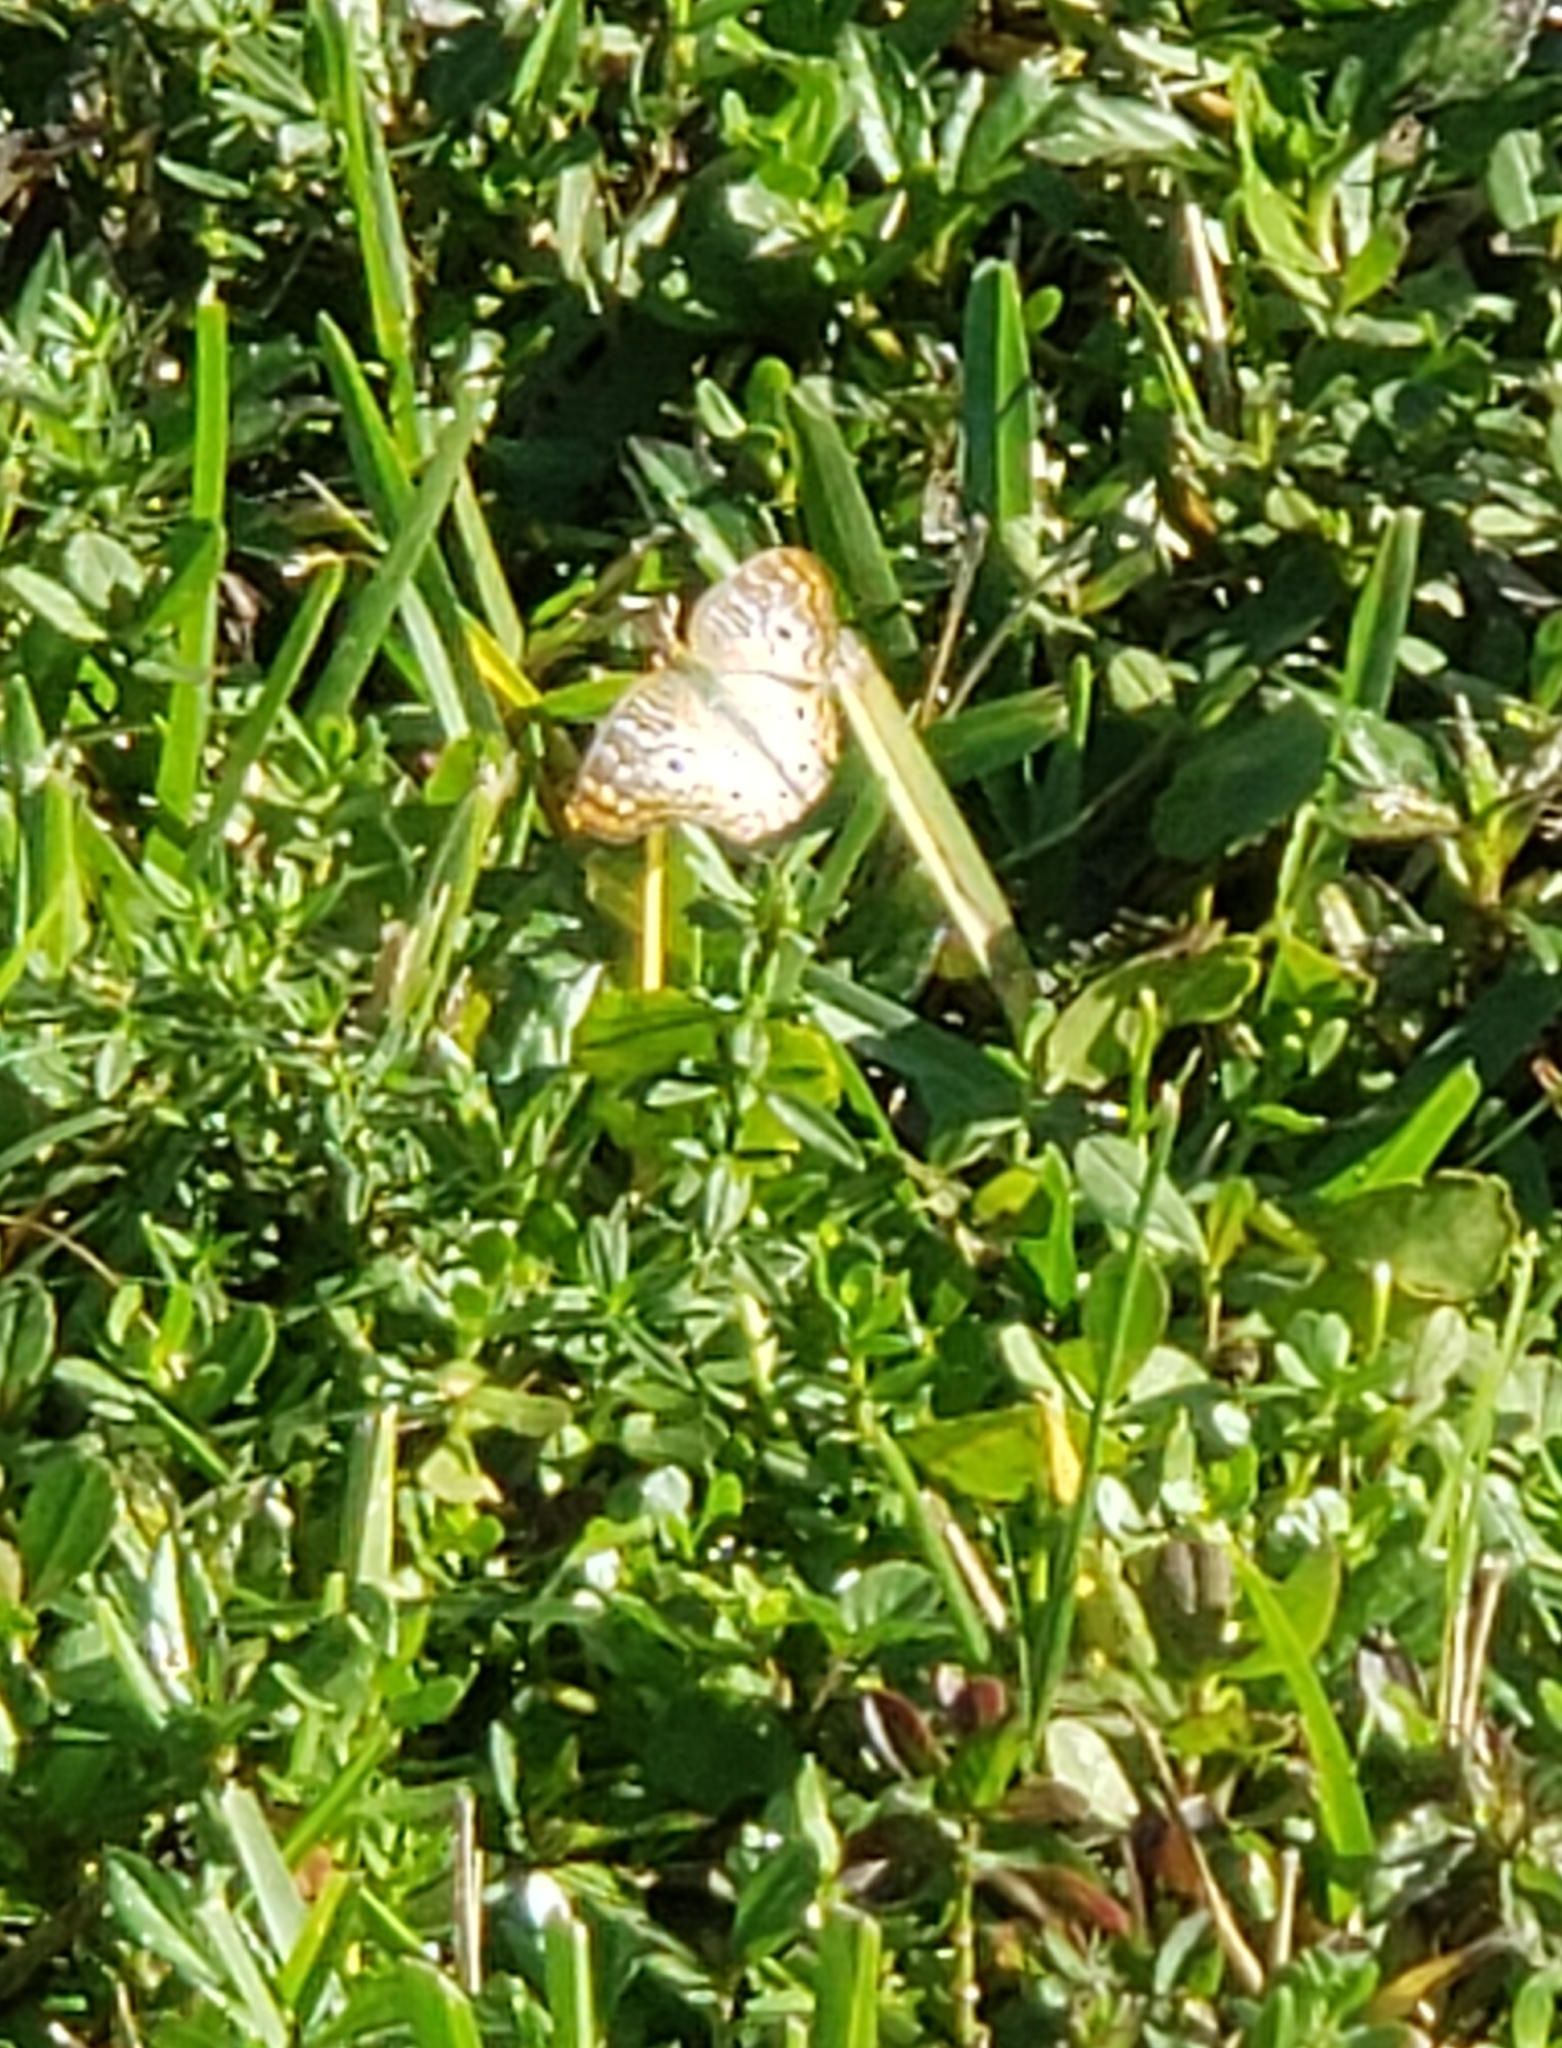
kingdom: Animalia
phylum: Arthropoda
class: Insecta
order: Lepidoptera
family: Nymphalidae
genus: Anartia
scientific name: Anartia jatrophae
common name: White peacock
